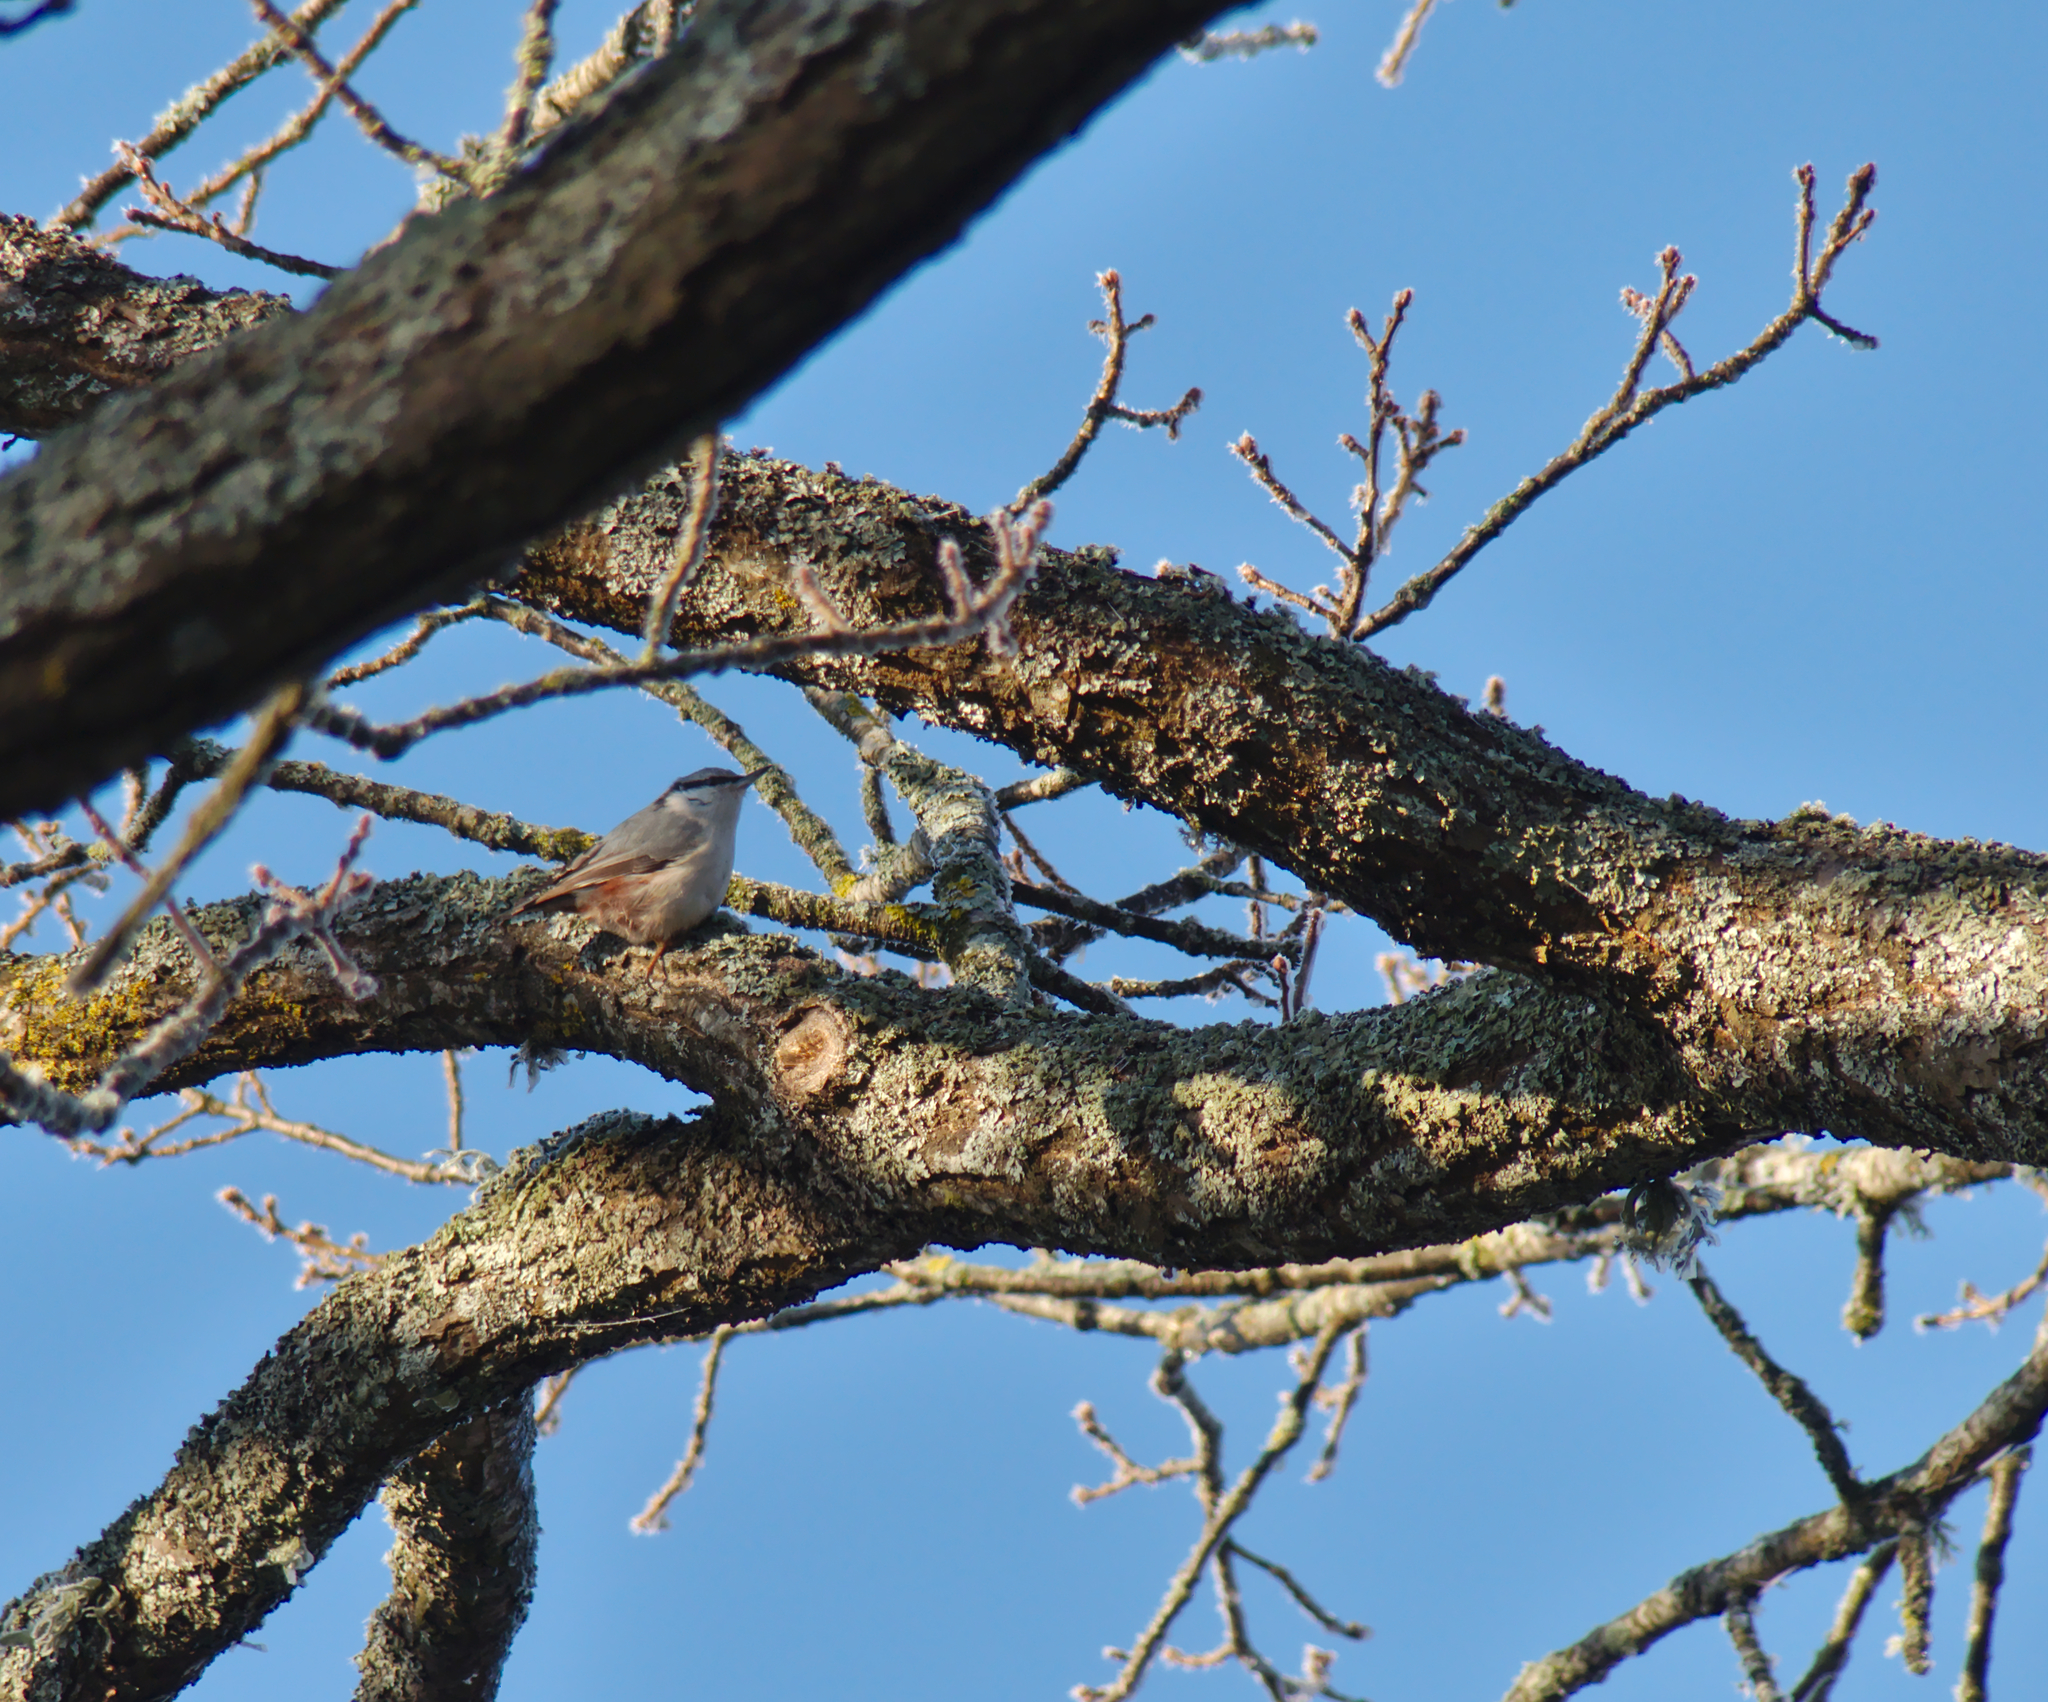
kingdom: Animalia
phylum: Chordata
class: Aves
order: Passeriformes
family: Sittidae
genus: Sitta
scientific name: Sitta europaea
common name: Eurasian nuthatch
